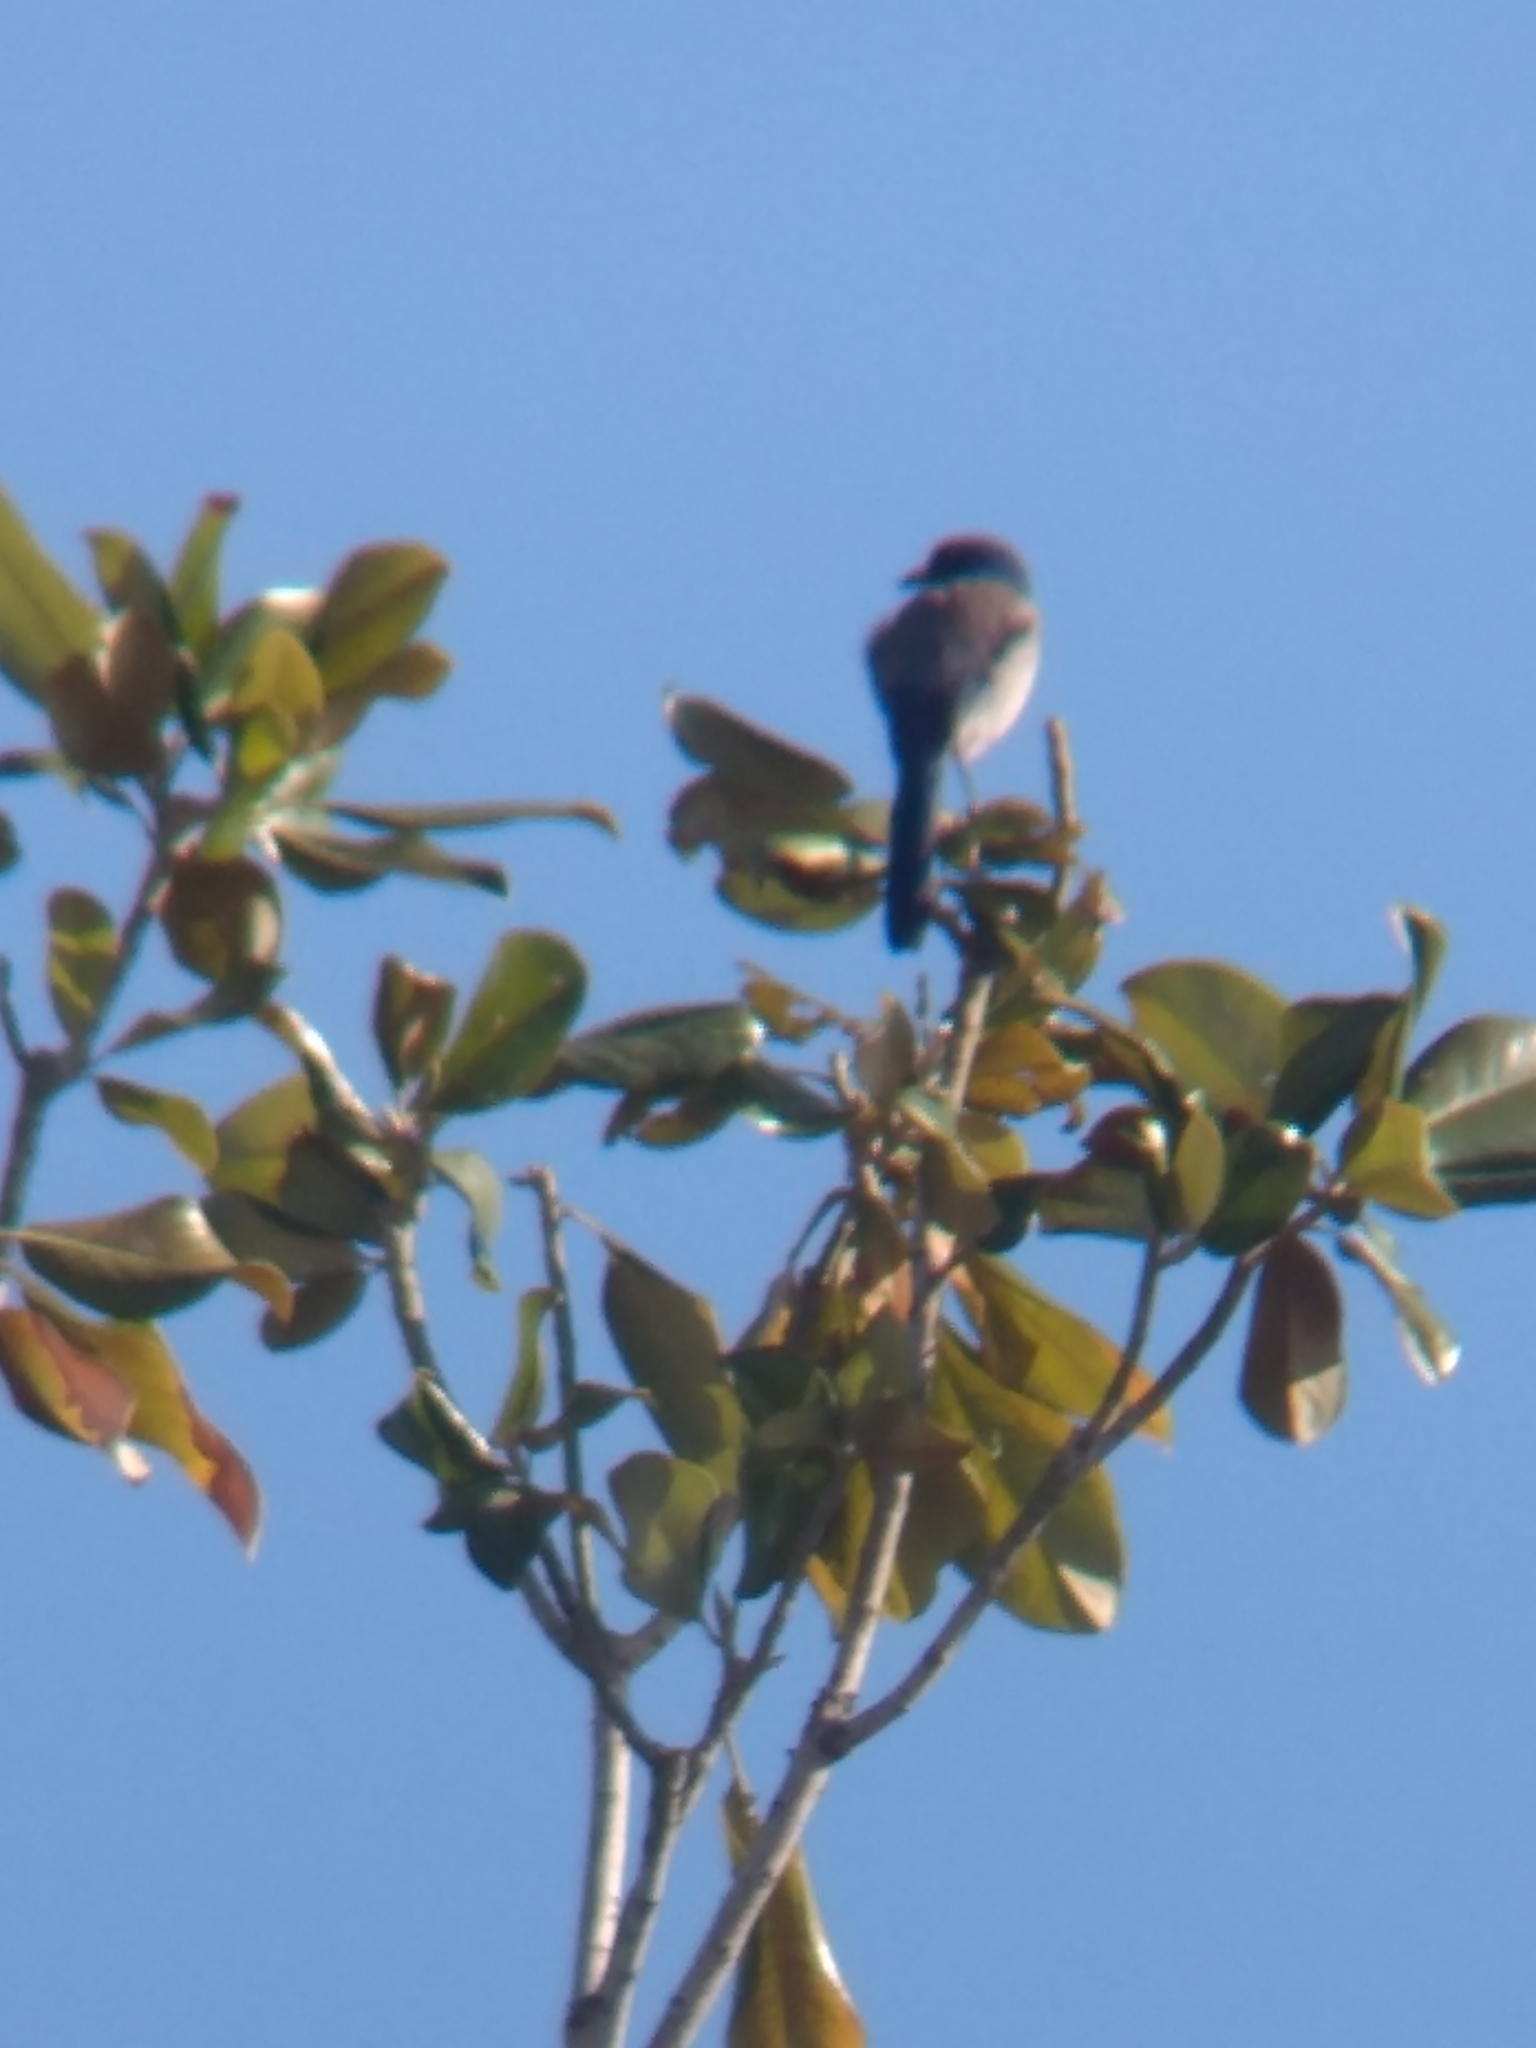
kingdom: Animalia
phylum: Chordata
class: Aves
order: Passeriformes
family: Corvidae
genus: Aphelocoma
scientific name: Aphelocoma californica
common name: California scrub-jay
